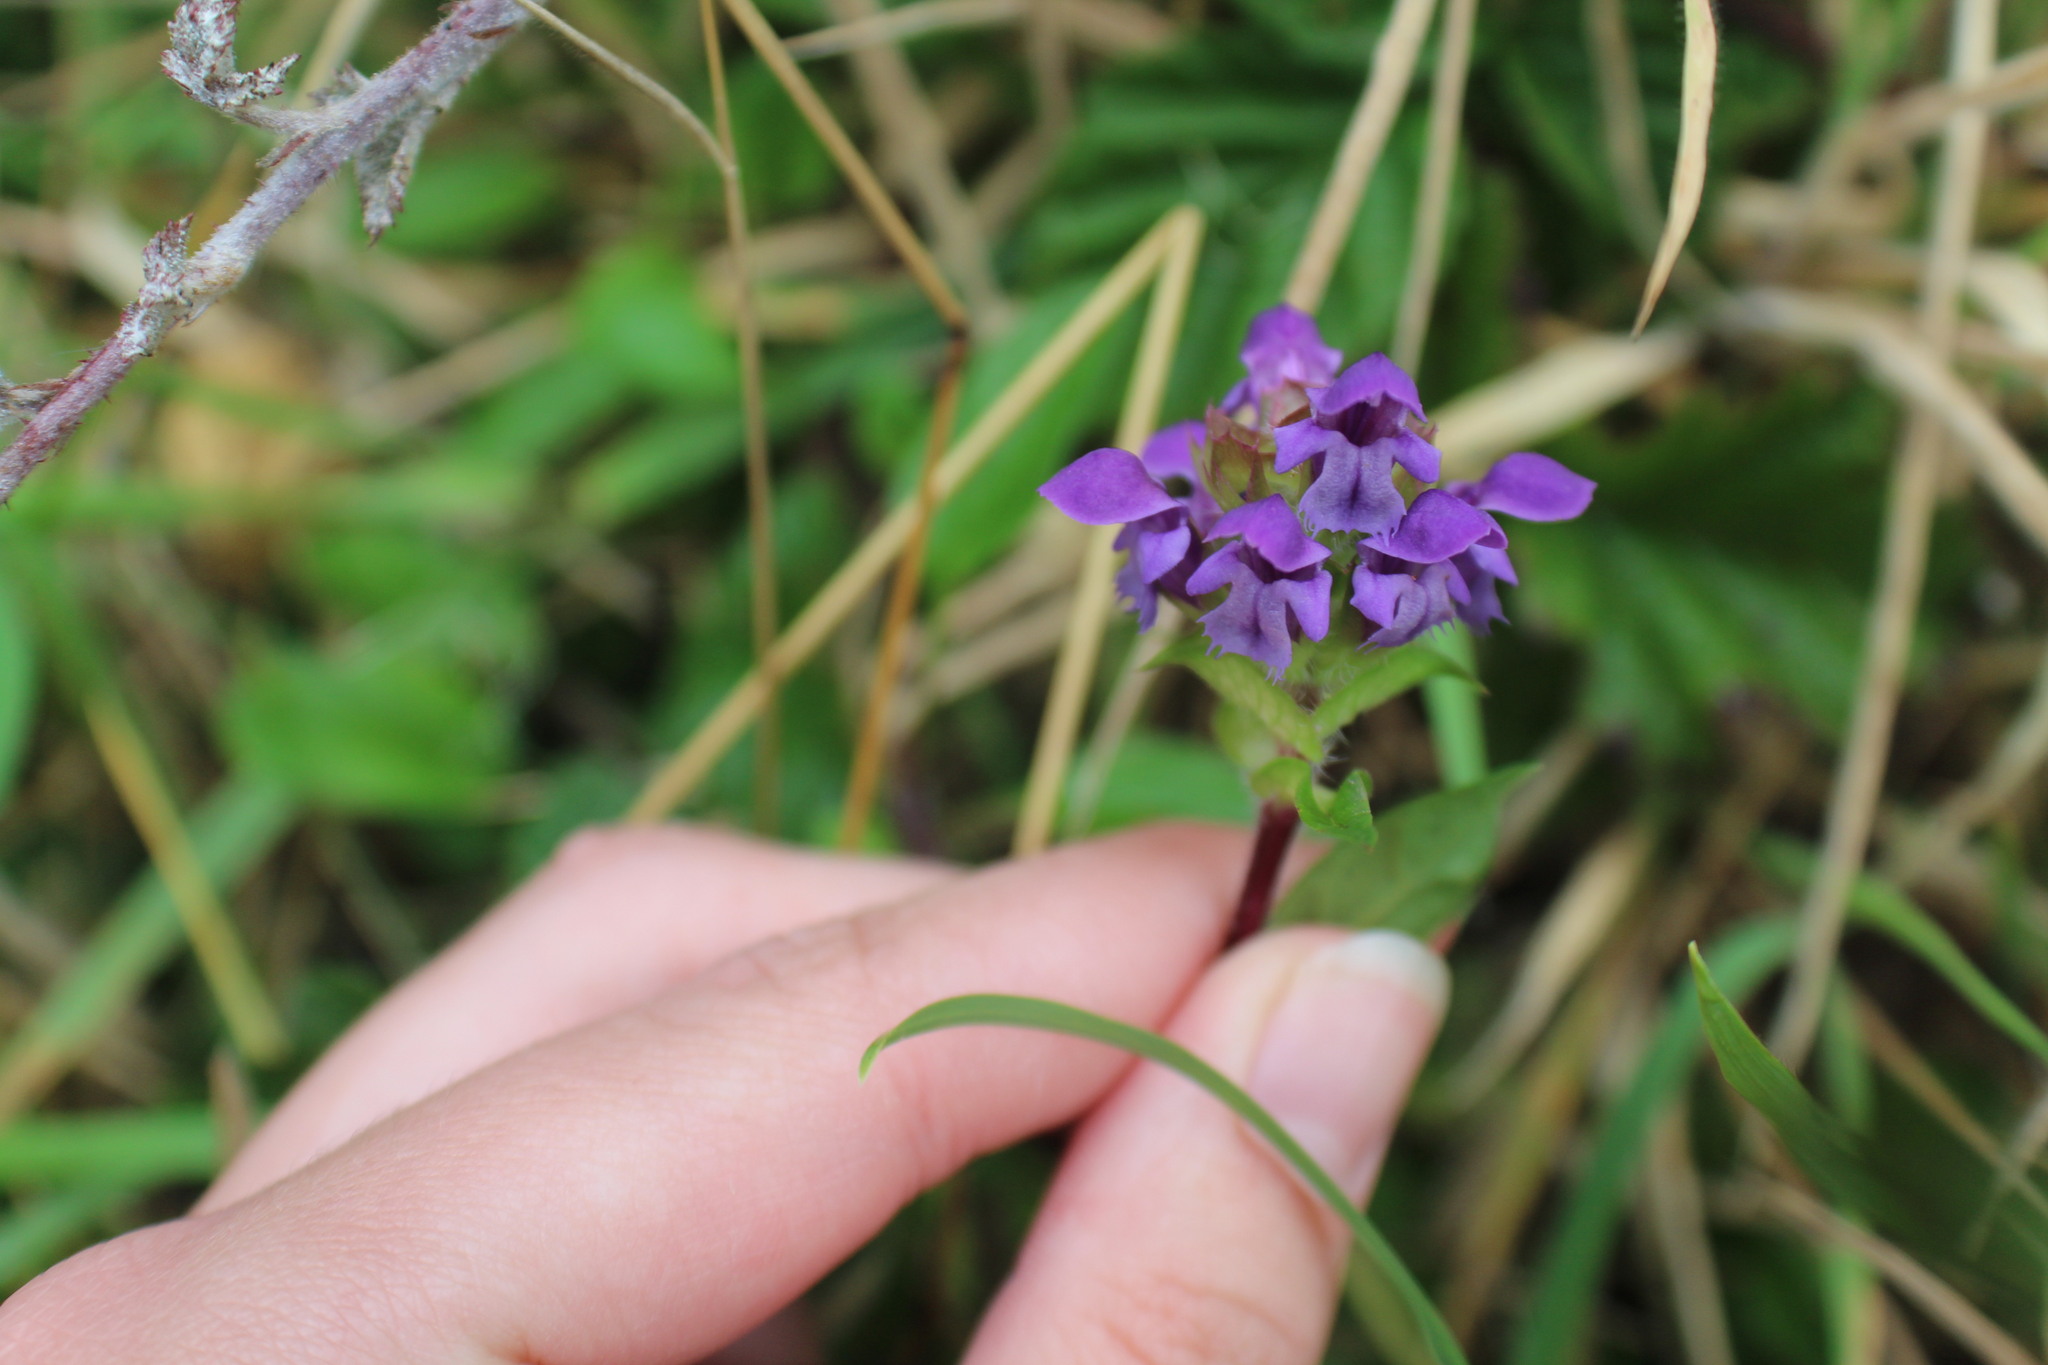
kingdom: Plantae
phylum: Tracheophyta
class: Magnoliopsida
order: Lamiales
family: Lamiaceae
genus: Prunella
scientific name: Prunella vulgaris
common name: Heal-all
